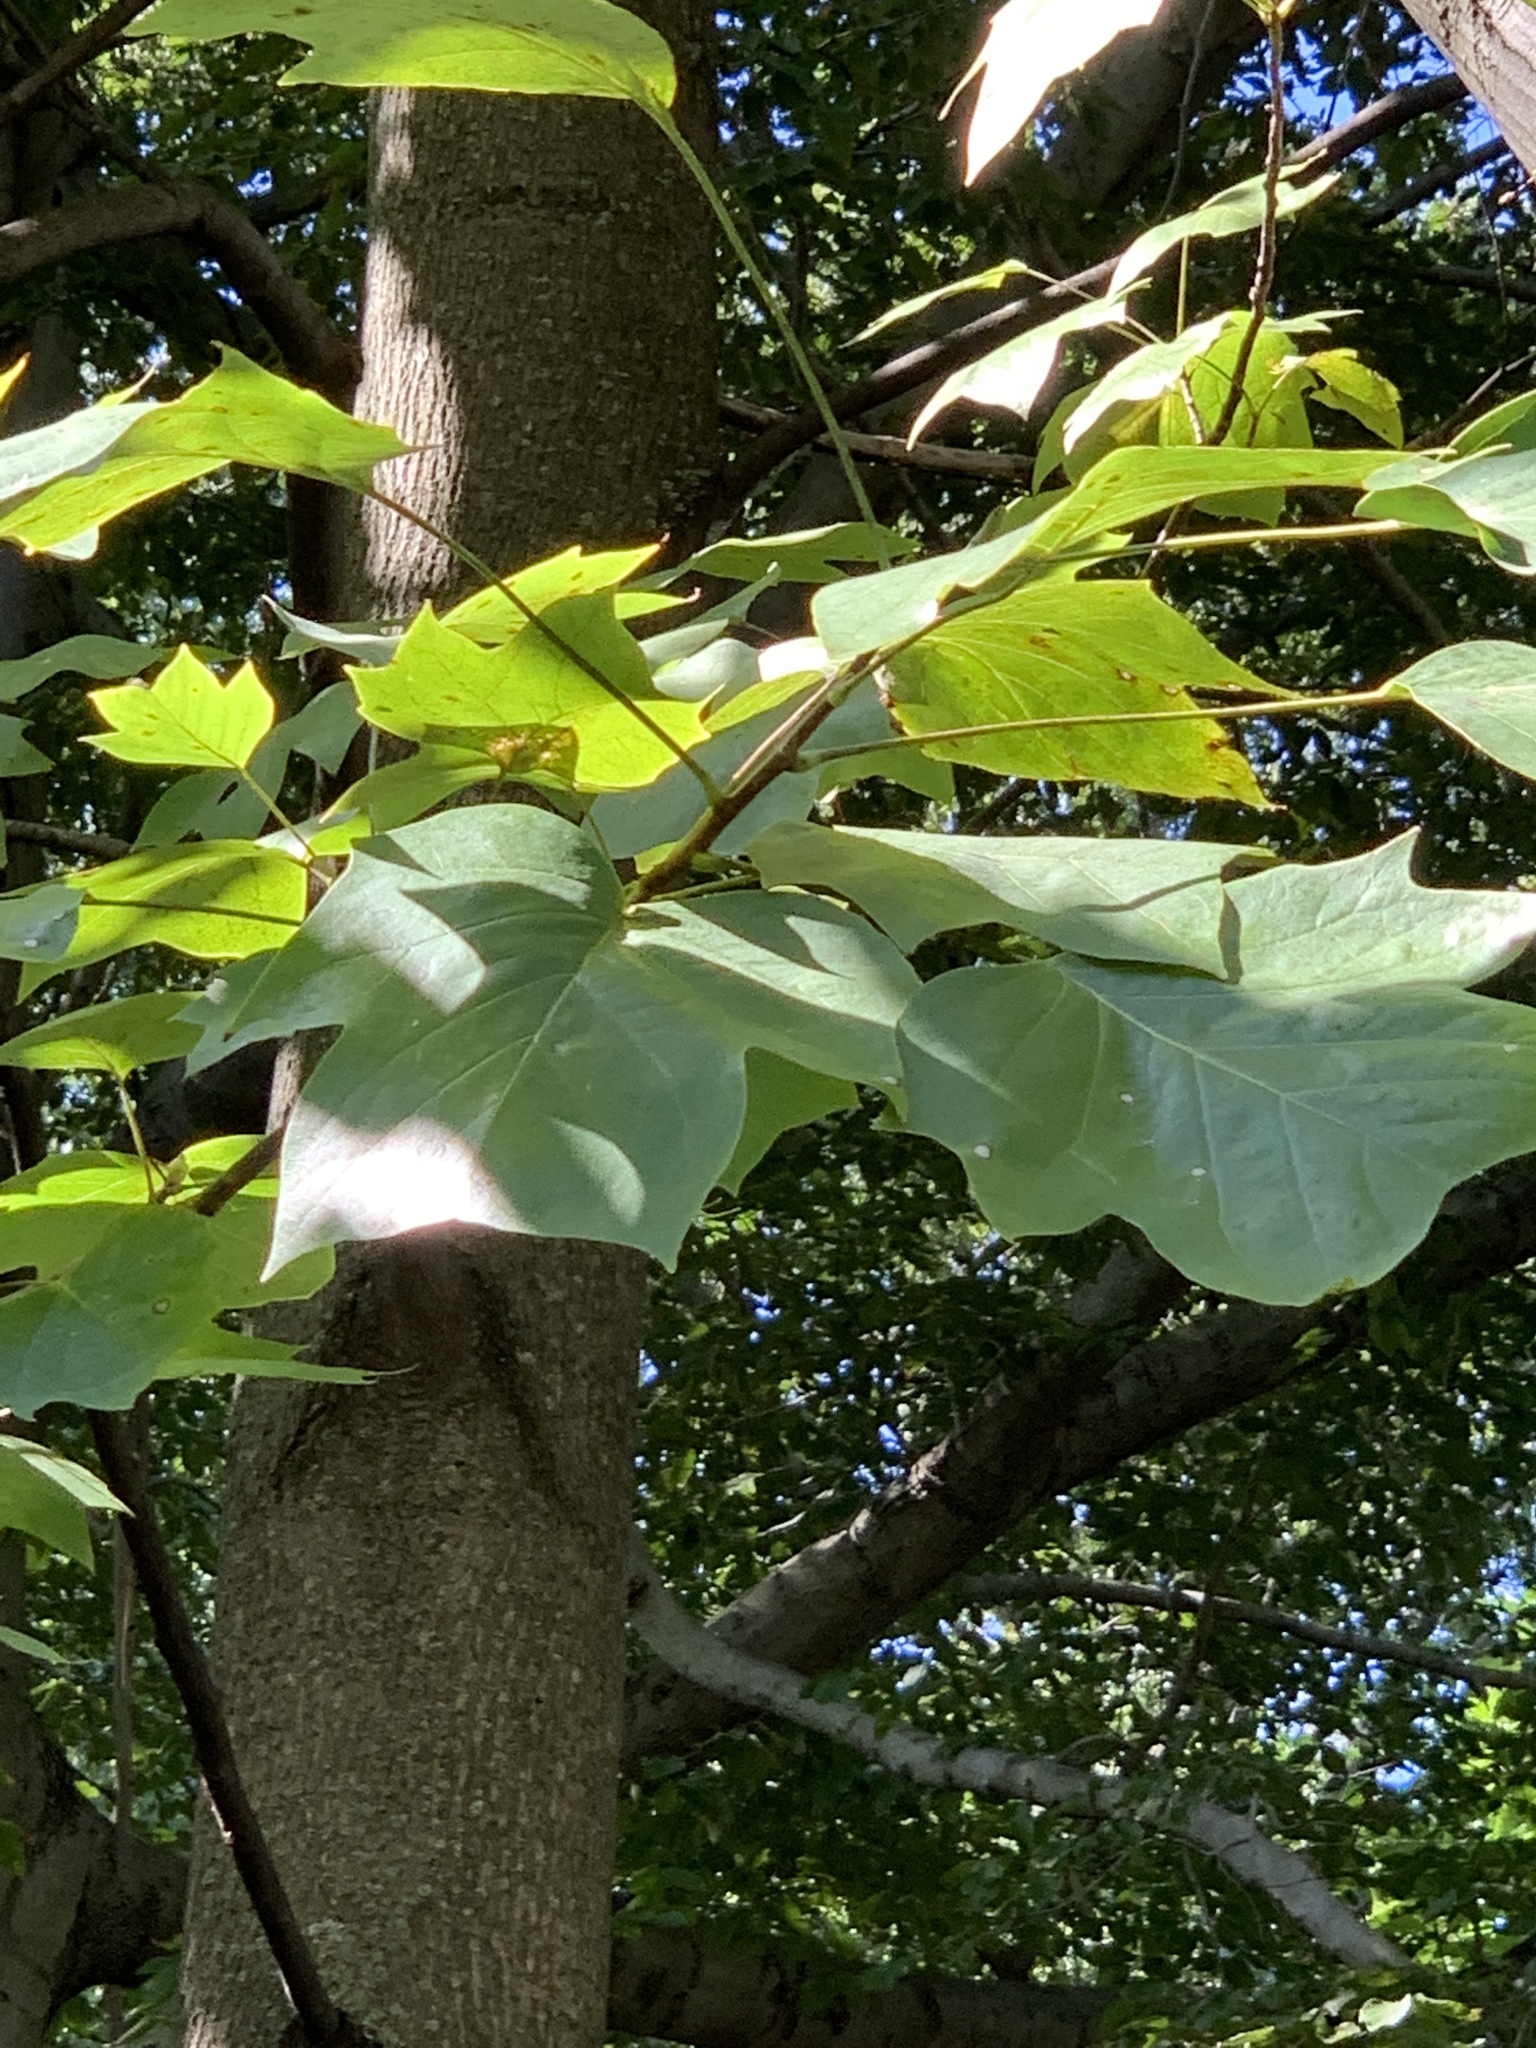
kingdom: Plantae
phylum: Tracheophyta
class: Magnoliopsida
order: Magnoliales
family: Magnoliaceae
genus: Liriodendron
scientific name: Liriodendron tulipifera
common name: Tulip tree
